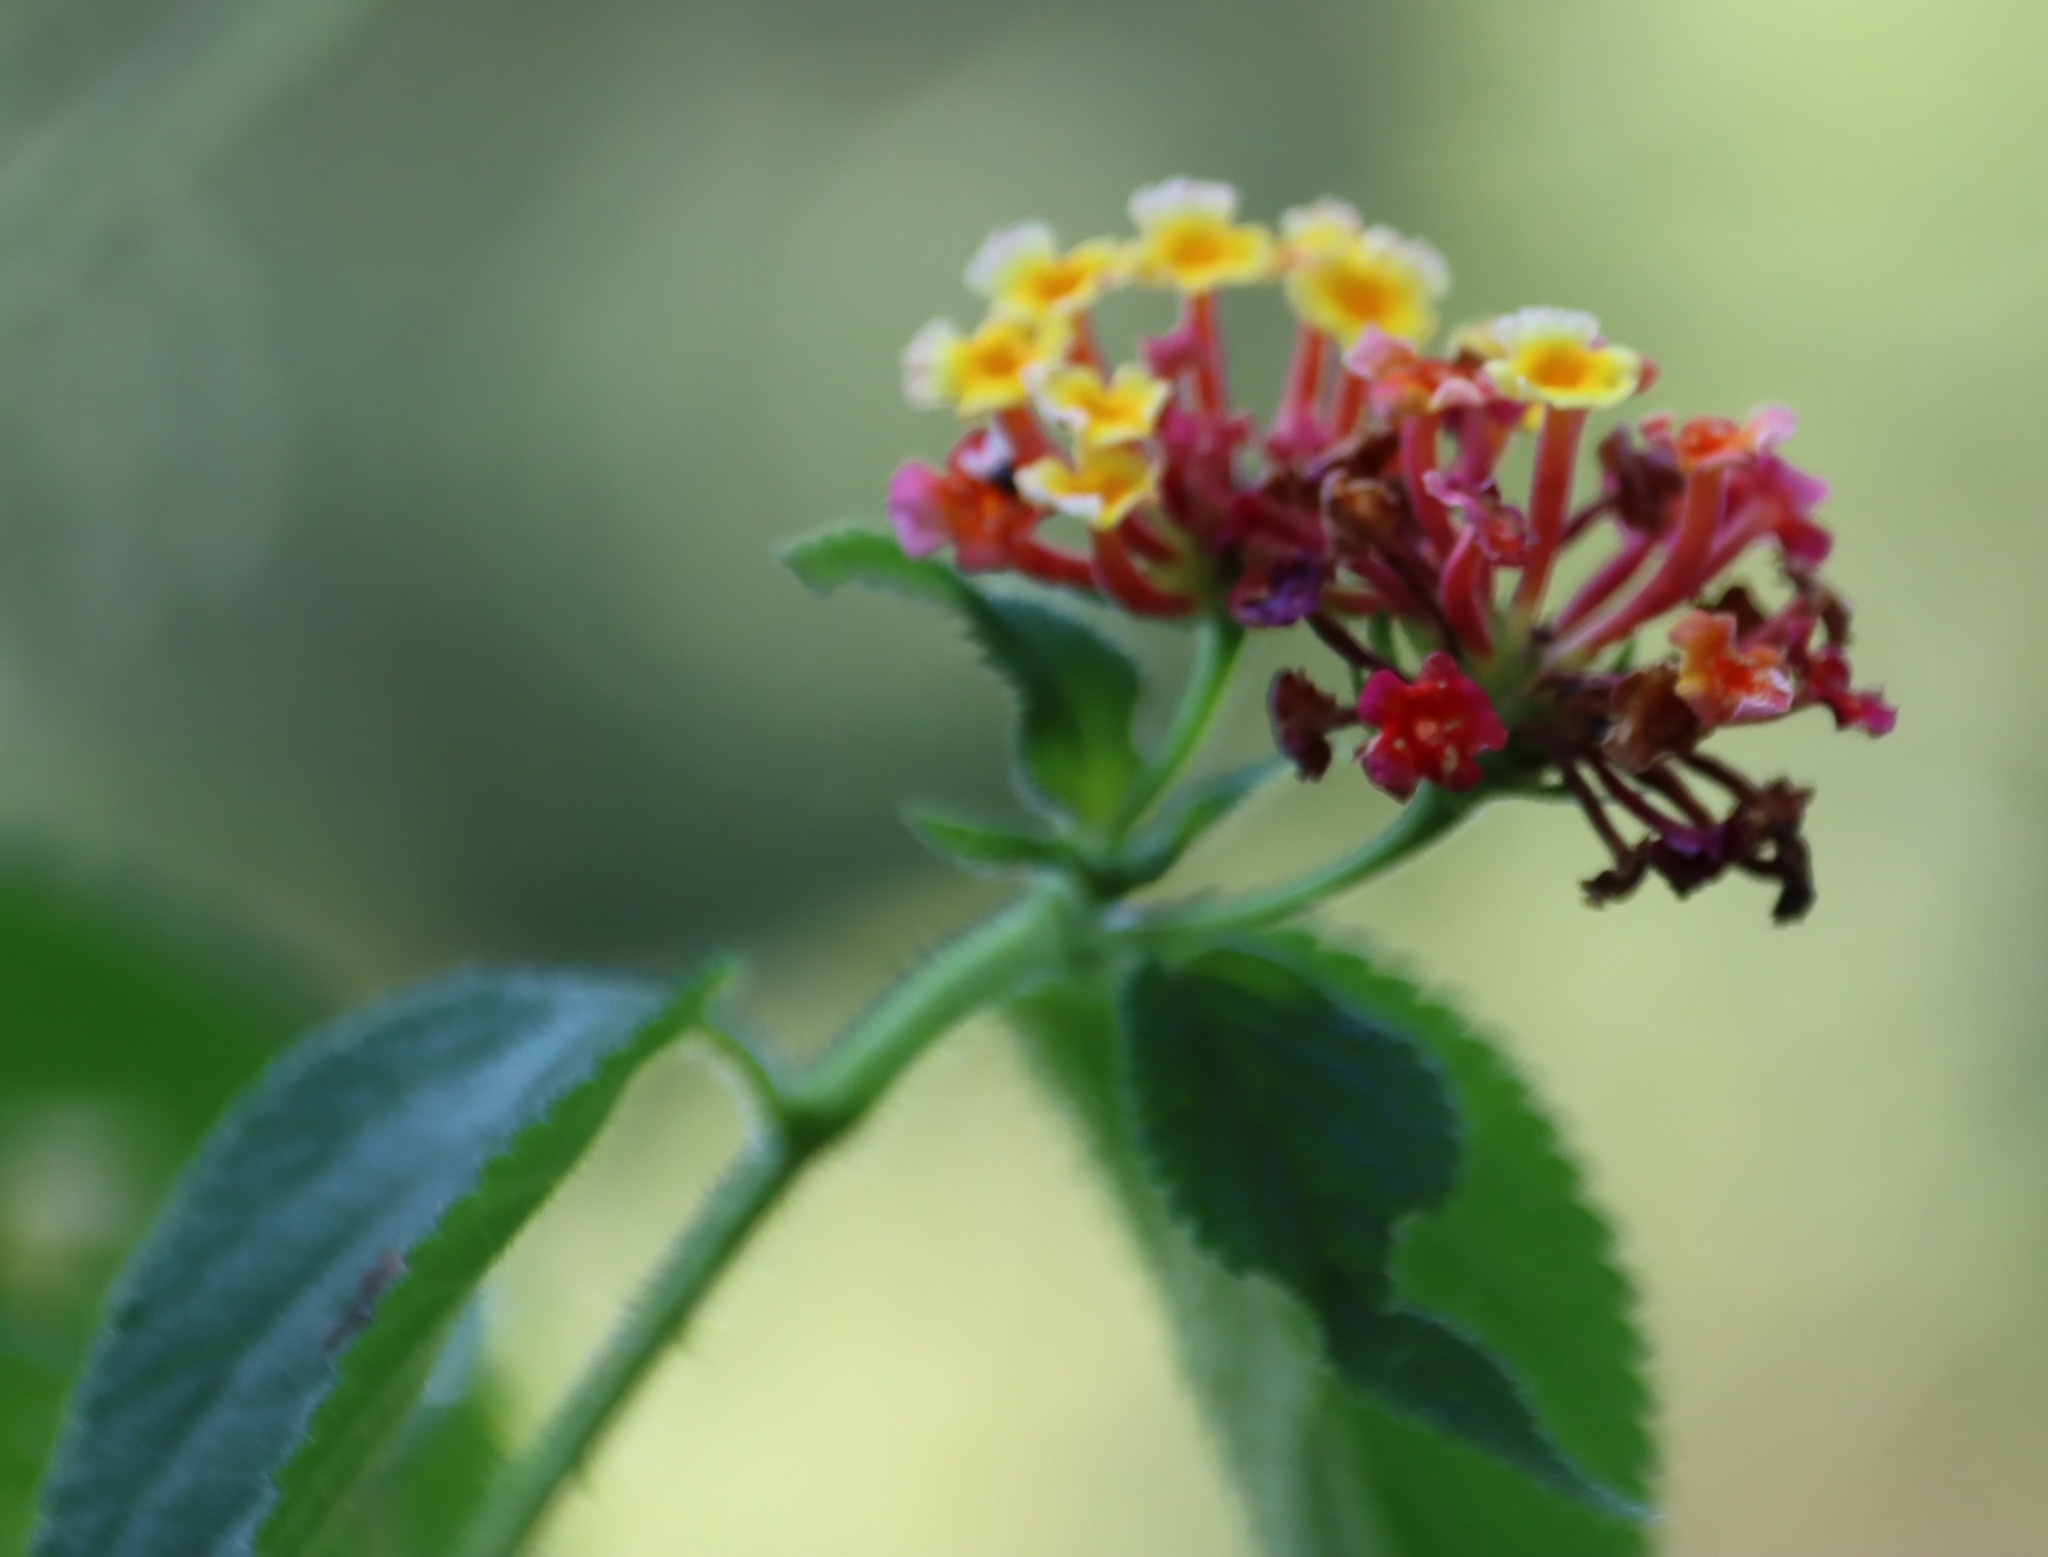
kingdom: Plantae
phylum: Tracheophyta
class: Magnoliopsida
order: Lamiales
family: Verbenaceae
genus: Lantana
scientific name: Lantana camara
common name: Lantana
